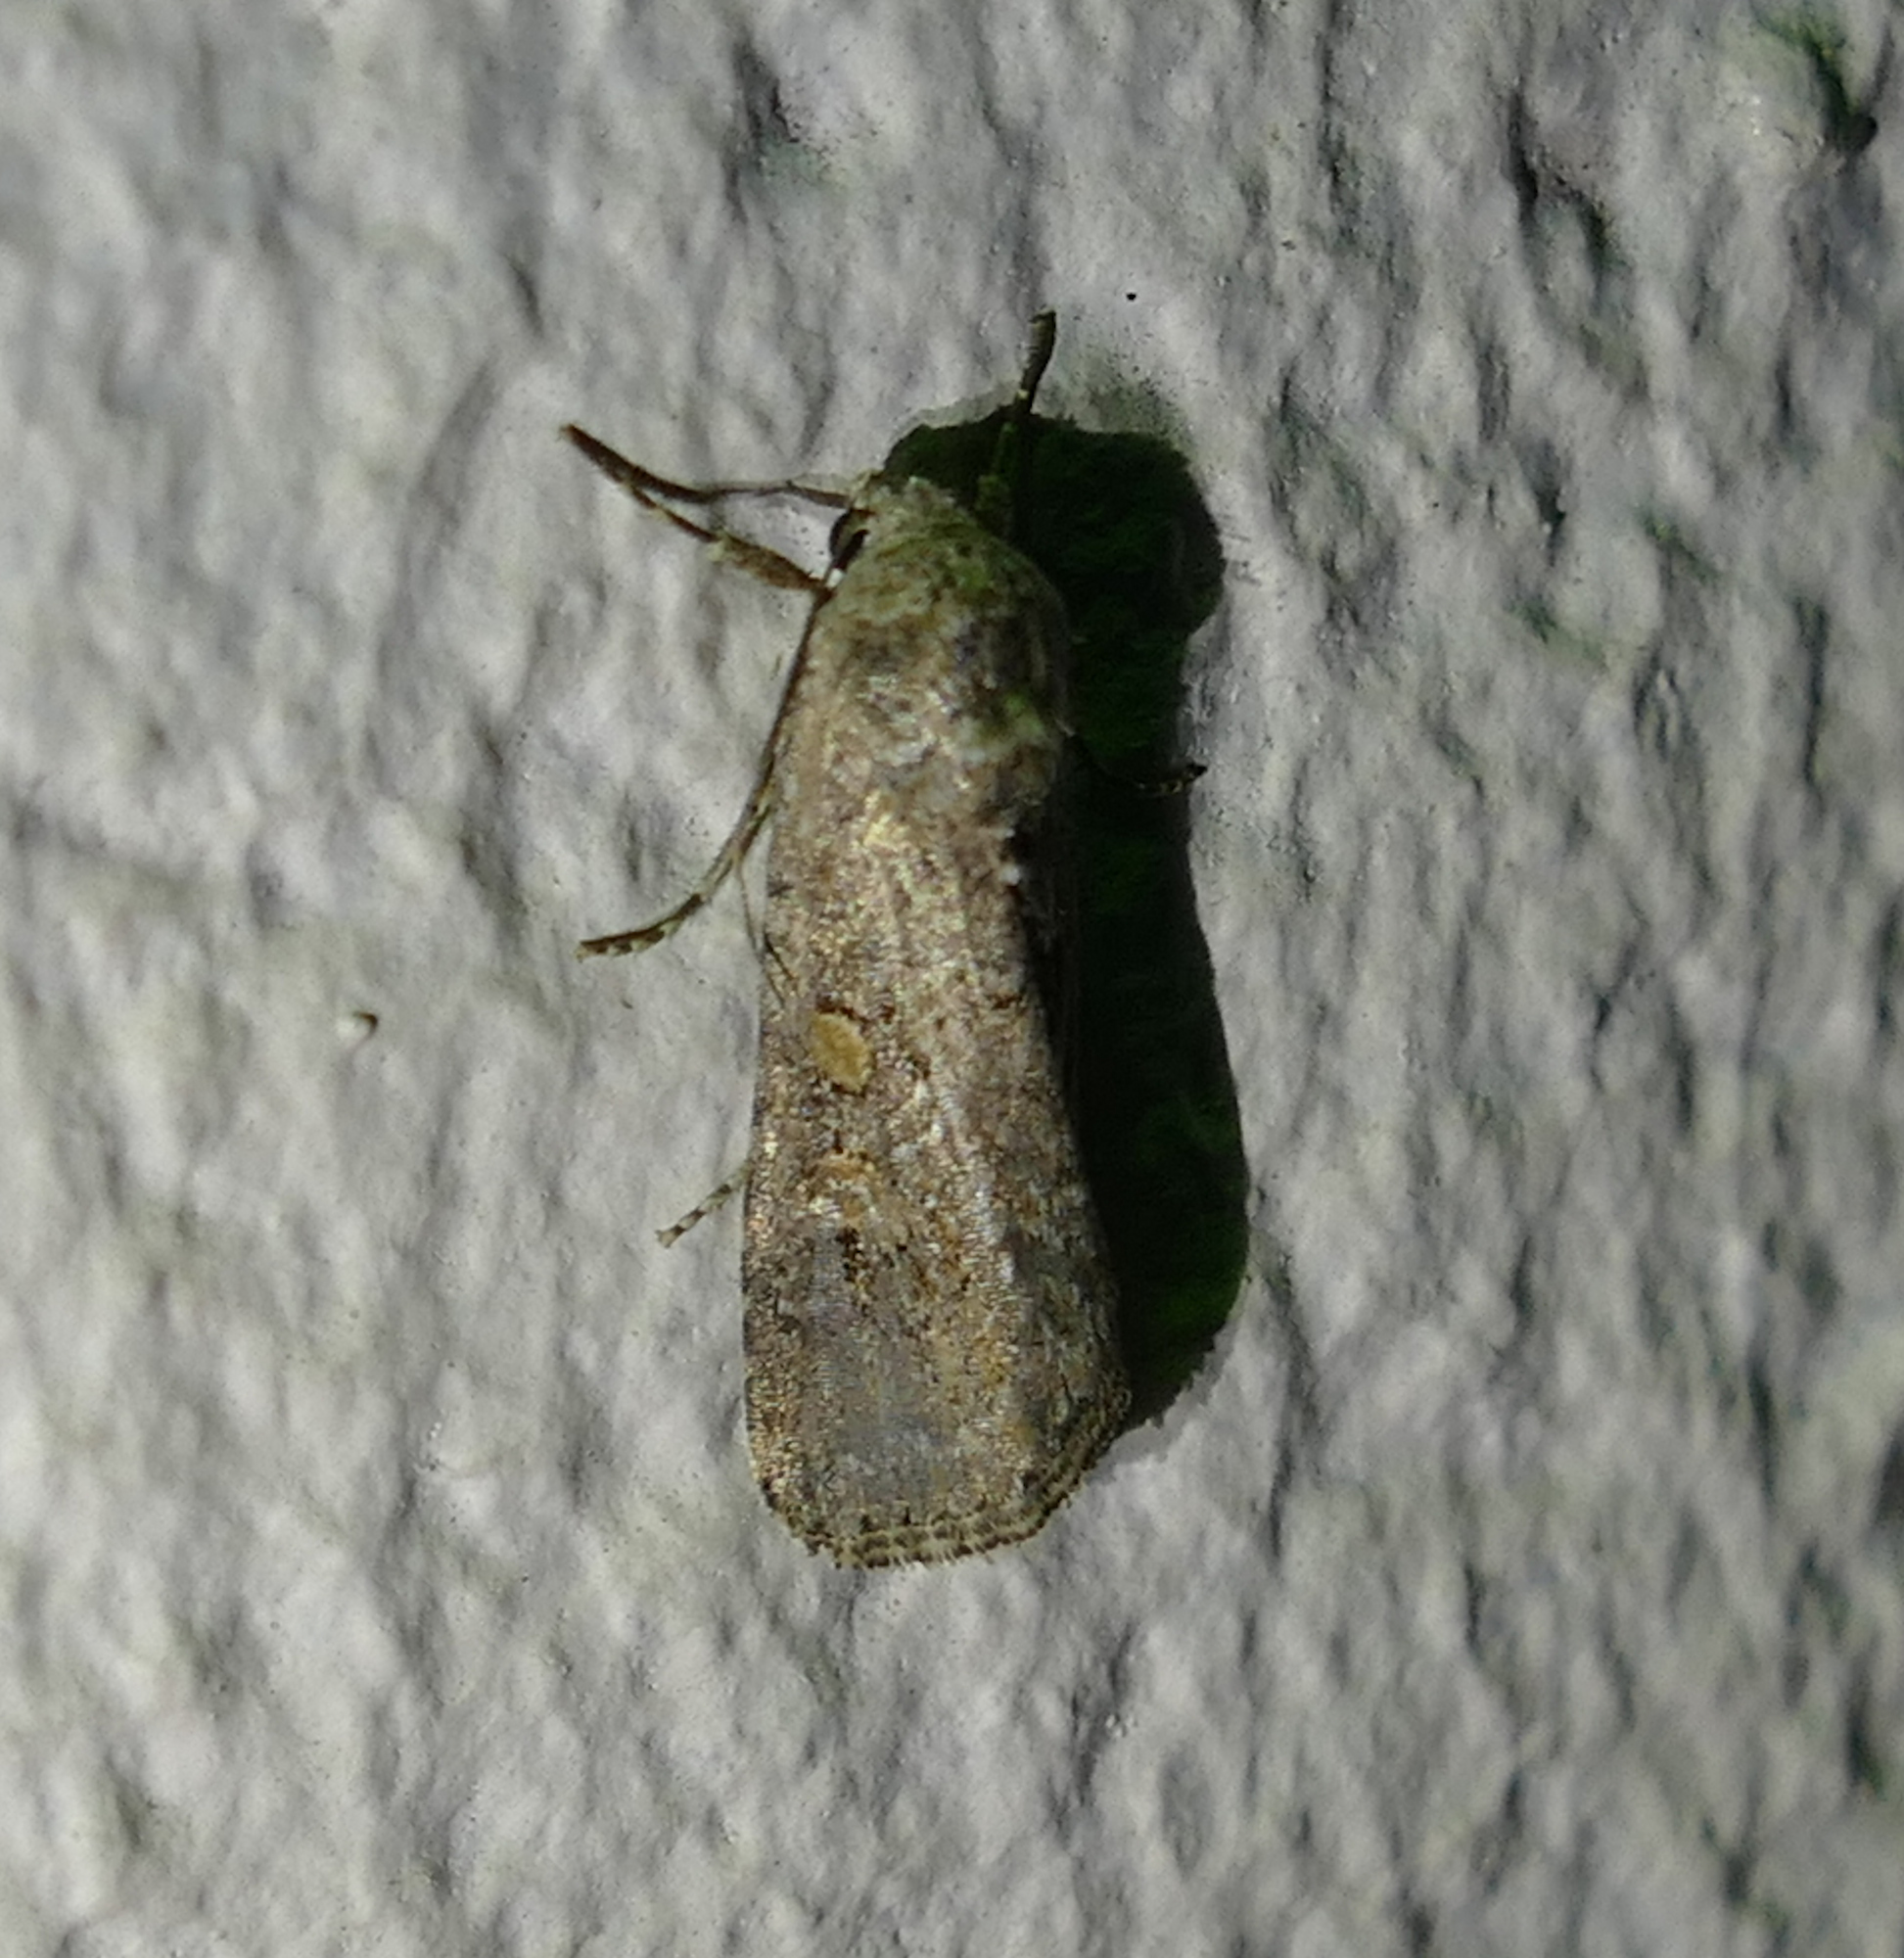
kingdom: Animalia
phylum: Arthropoda
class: Insecta
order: Lepidoptera
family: Noctuidae
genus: Spodoptera
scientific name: Spodoptera exigua
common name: Beet armyworm
